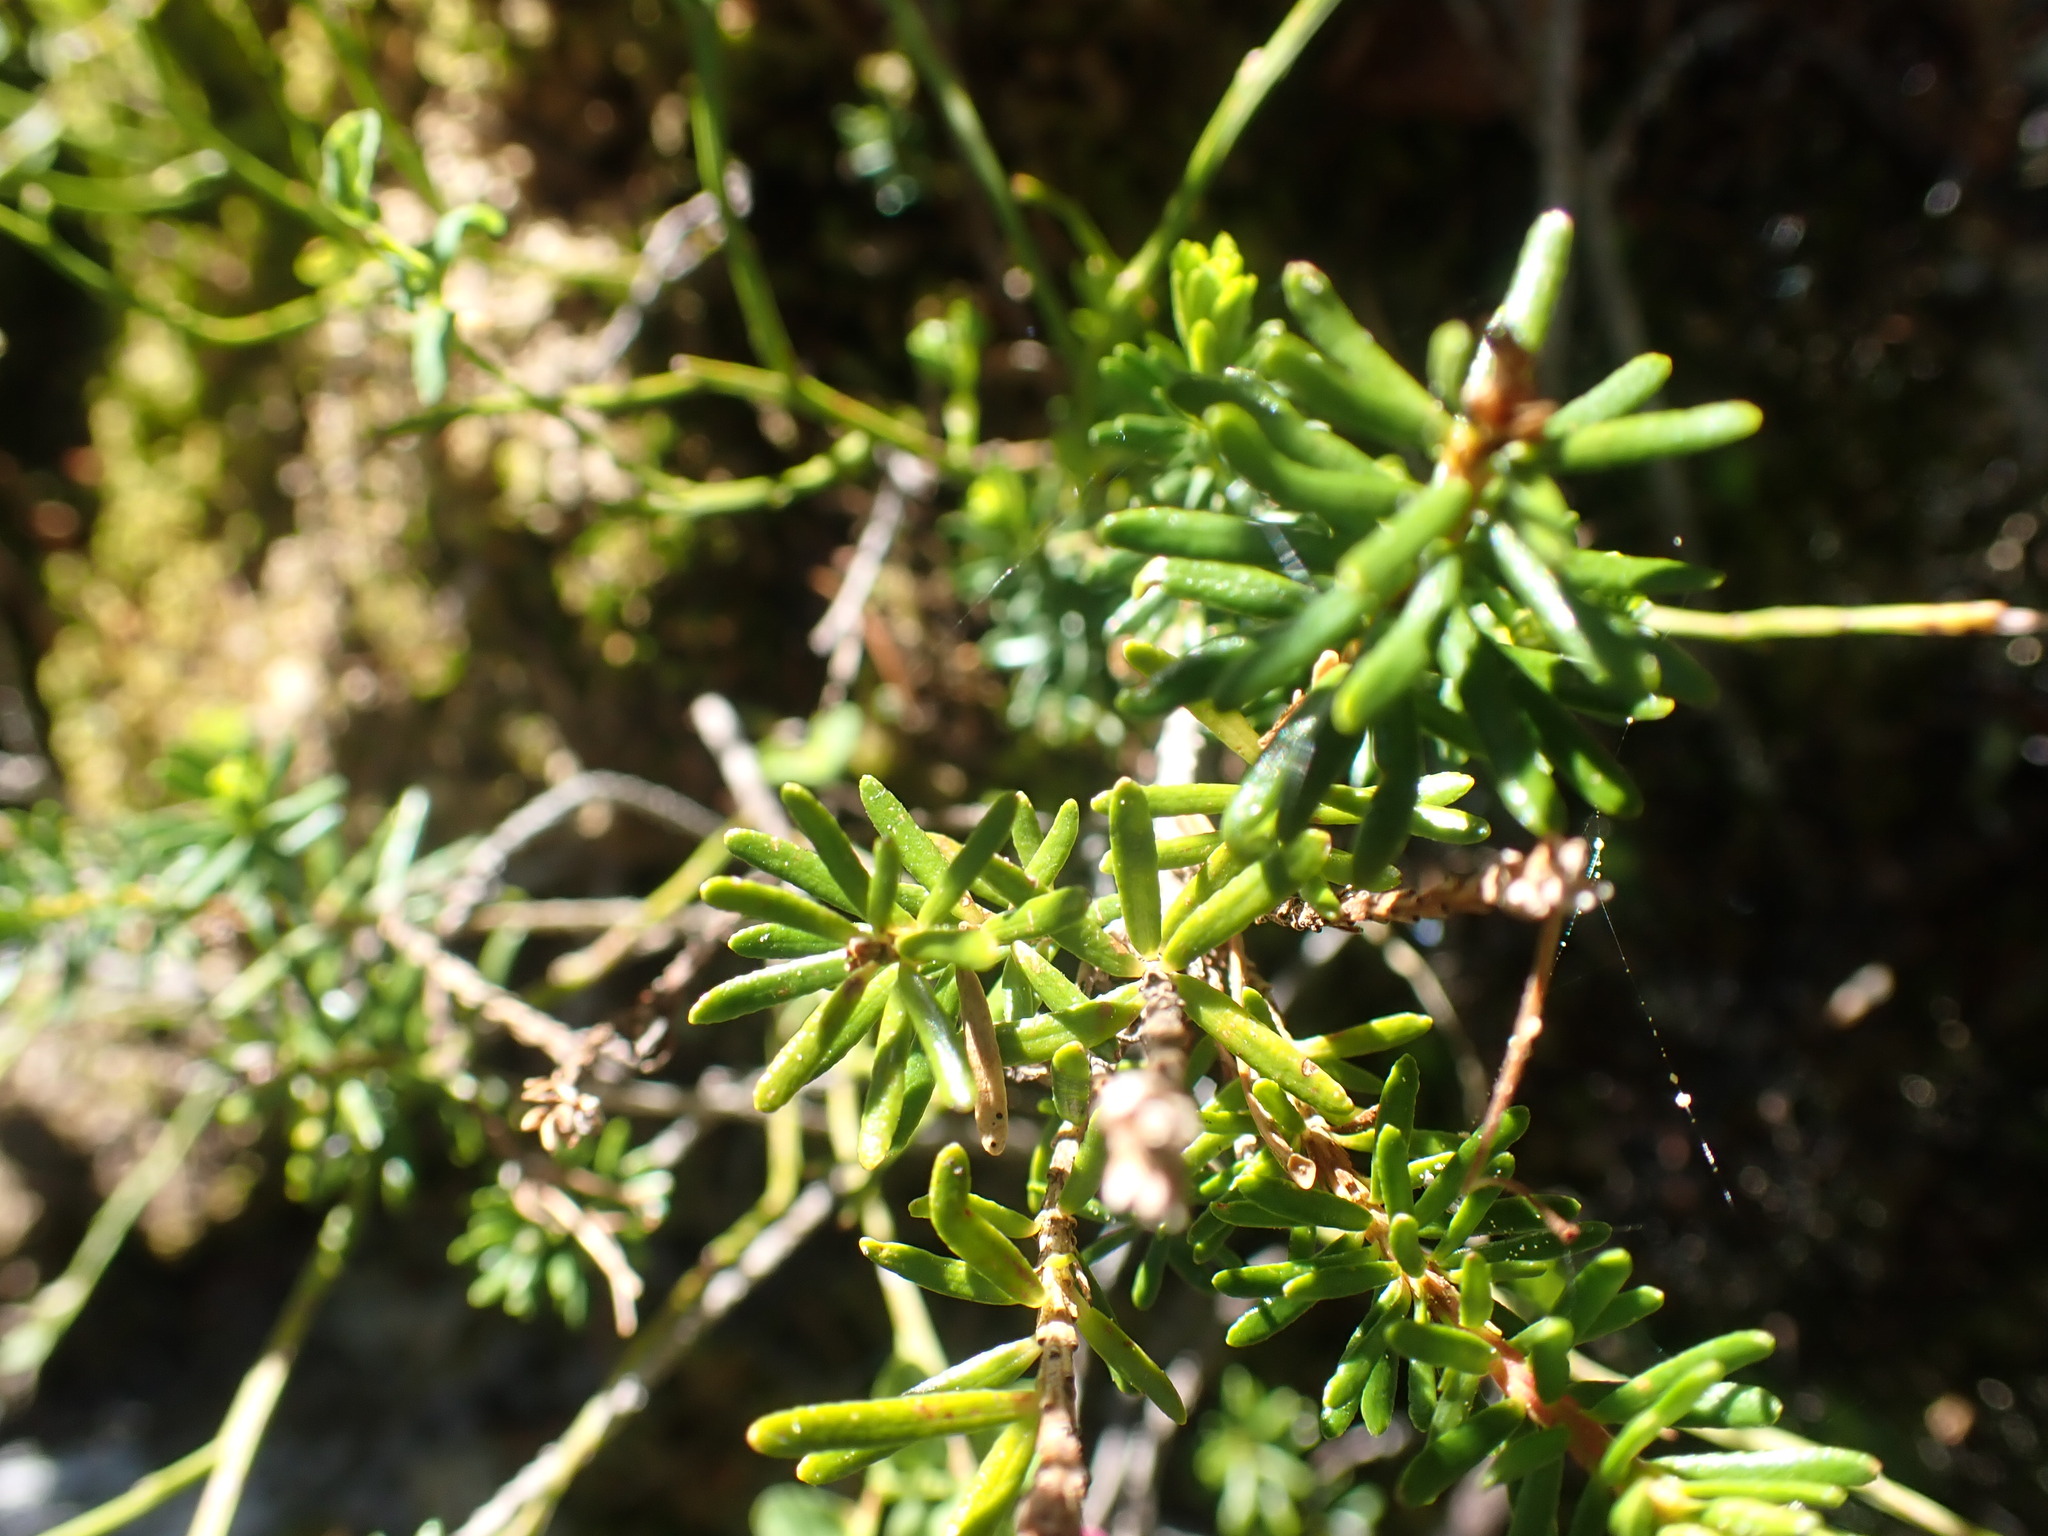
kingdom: Plantae
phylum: Tracheophyta
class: Magnoliopsida
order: Ericales
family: Ericaceae
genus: Phyllodoce
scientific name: Phyllodoce empetriformis
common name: Pink mountain heather
